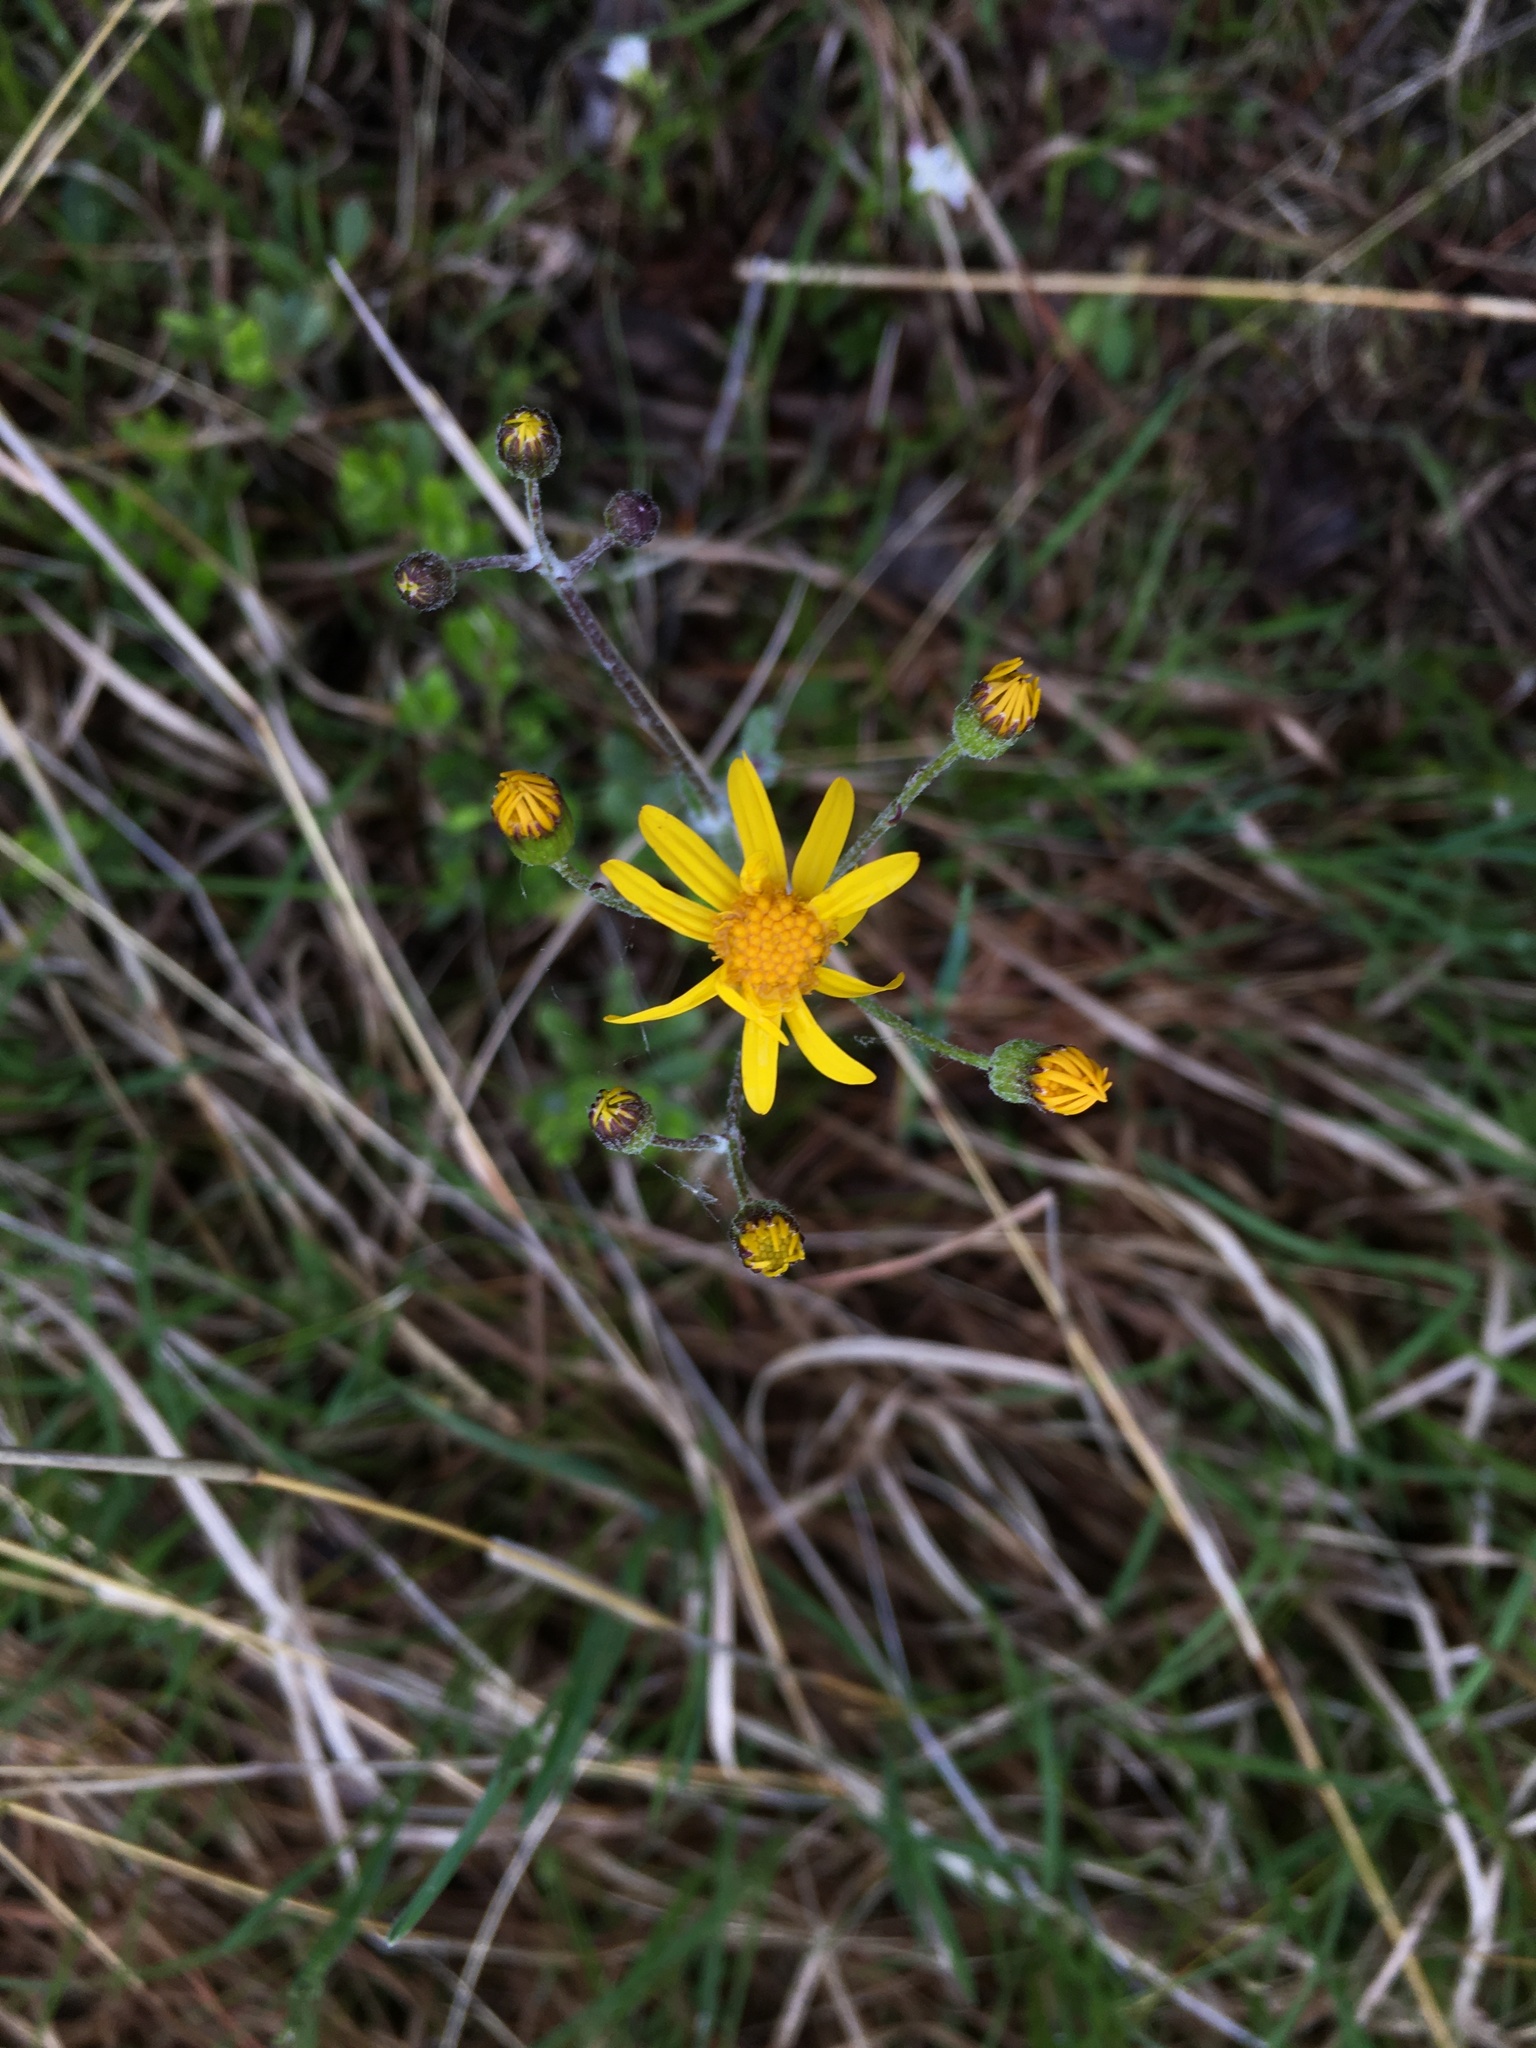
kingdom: Plantae
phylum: Tracheophyta
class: Magnoliopsida
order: Asterales
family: Asteraceae
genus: Packera
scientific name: Packera paupercula
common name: Balsam groundsel
